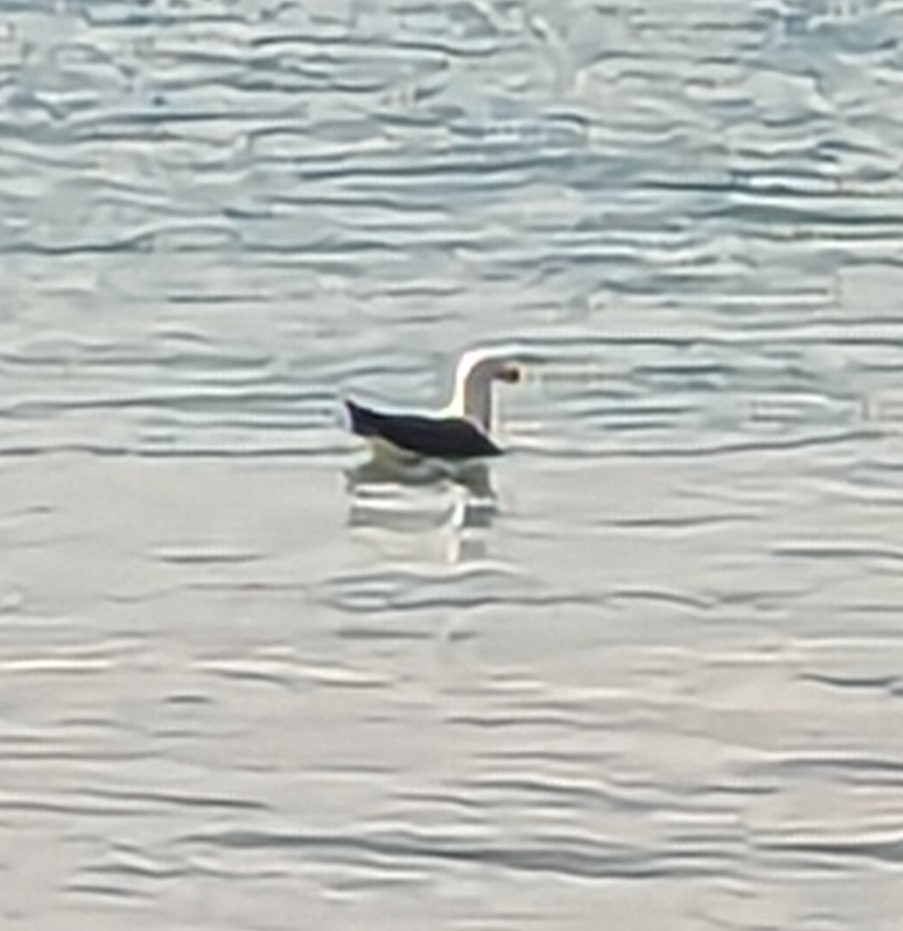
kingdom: Animalia
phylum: Chordata
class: Aves
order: Charadriiformes
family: Laridae
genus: Larus
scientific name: Larus pacificus
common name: Pacific gull
